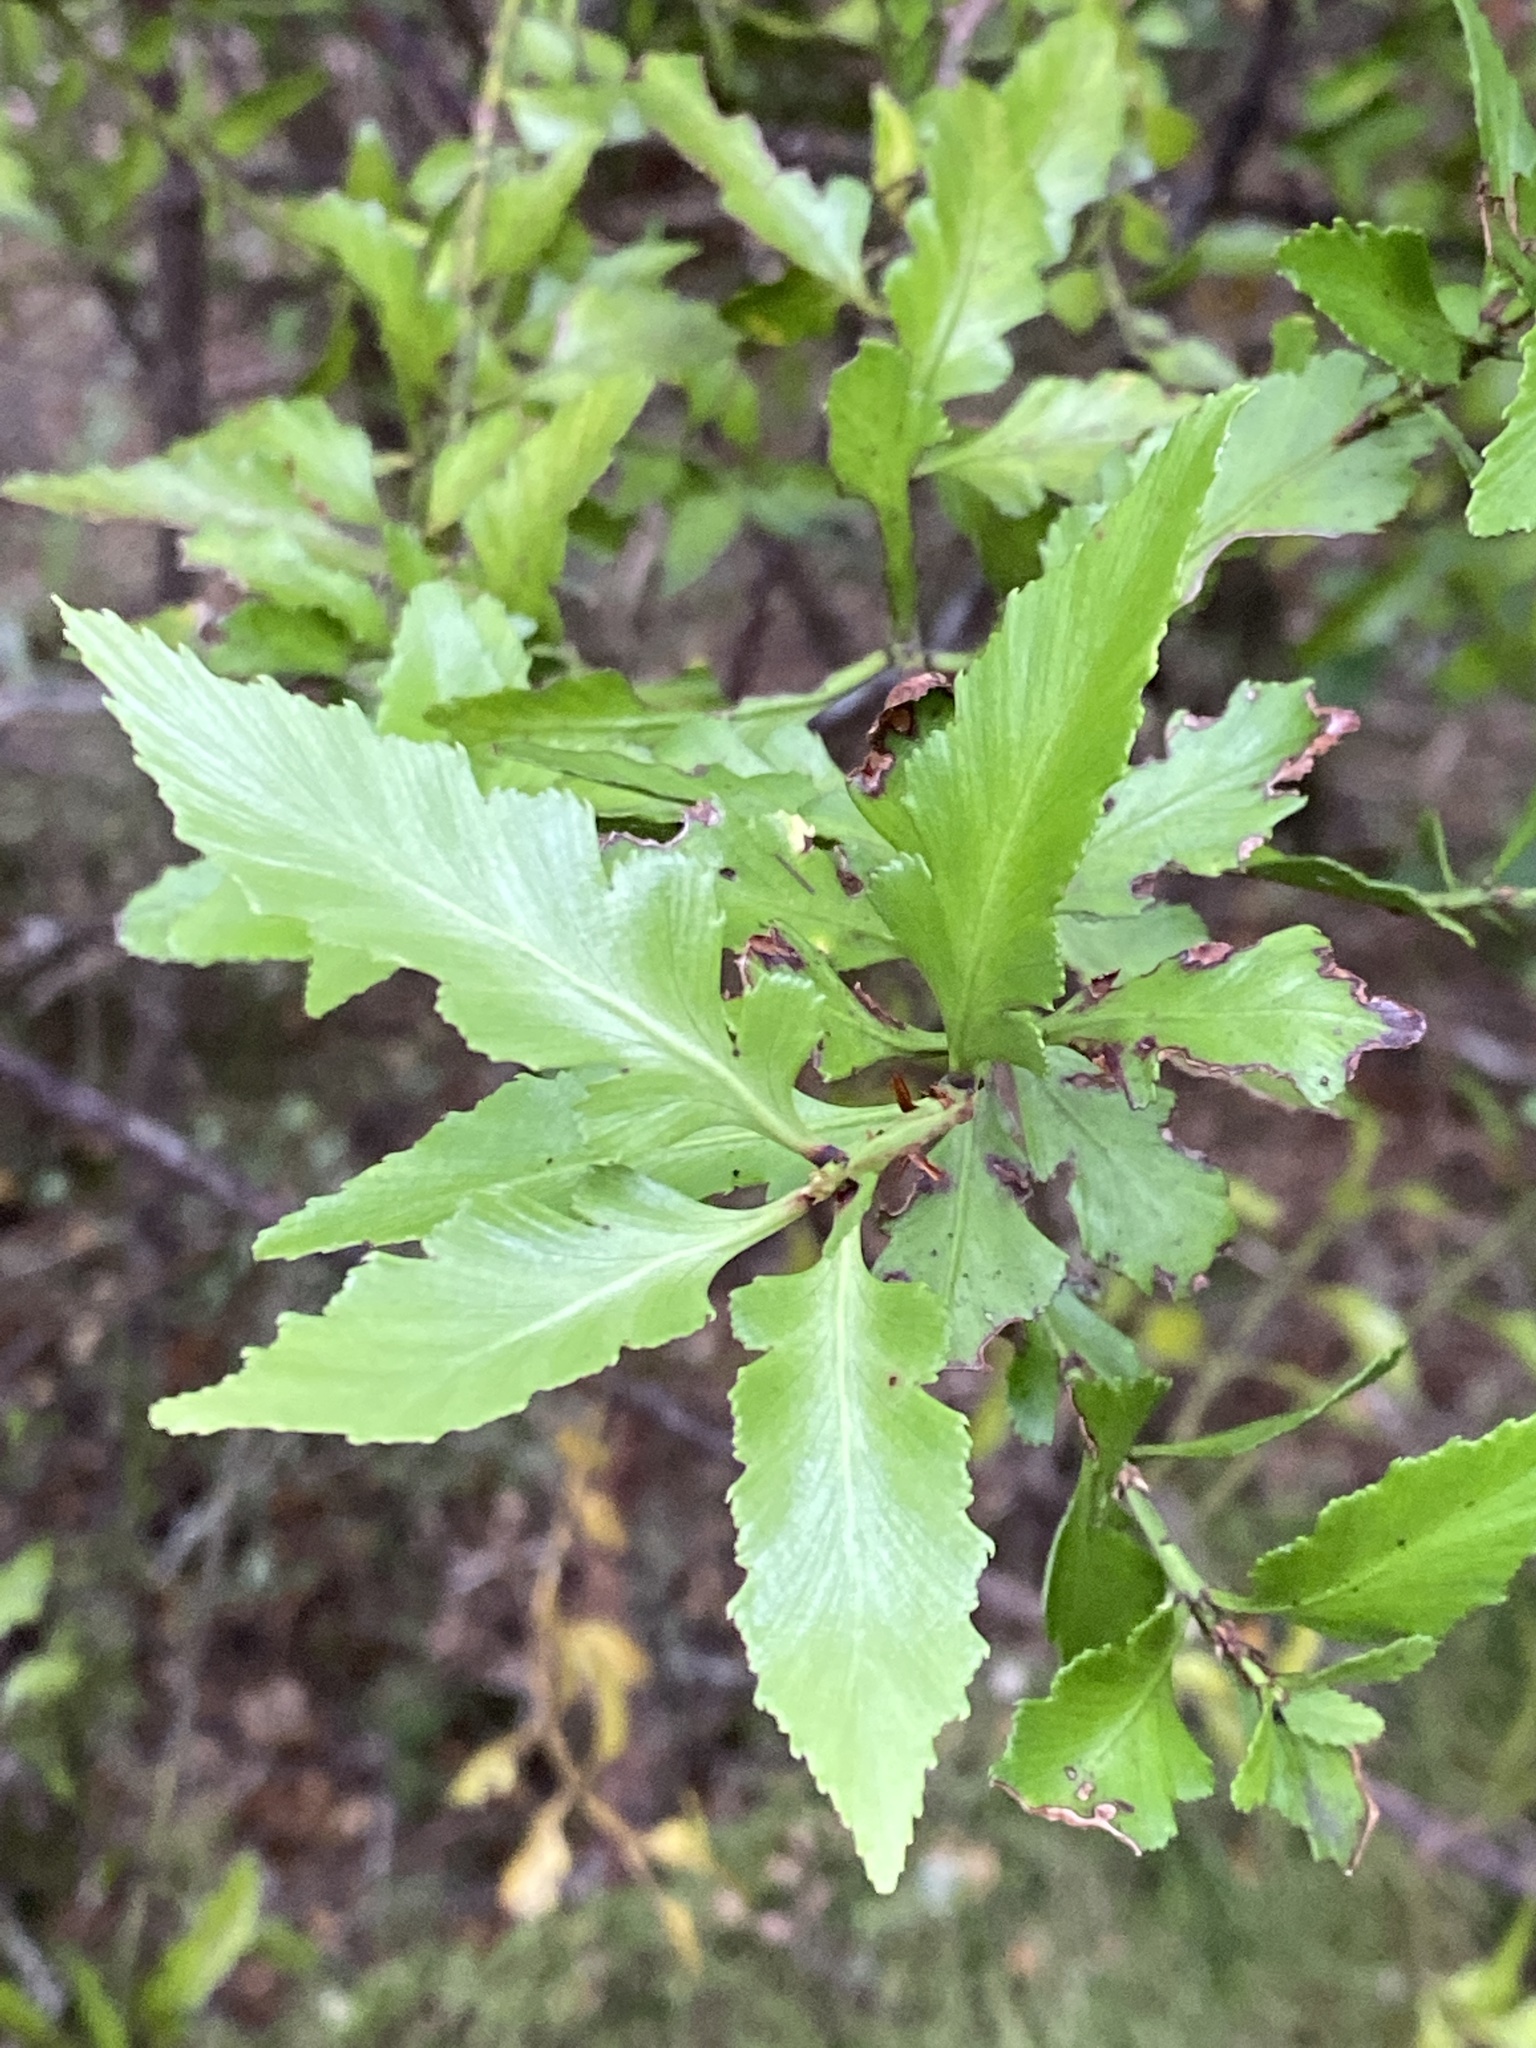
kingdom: Plantae
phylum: Tracheophyta
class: Pinopsida
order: Pinales
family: Phyllocladaceae
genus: Phyllocladus
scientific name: Phyllocladus trichomanoides
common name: Celery pine
